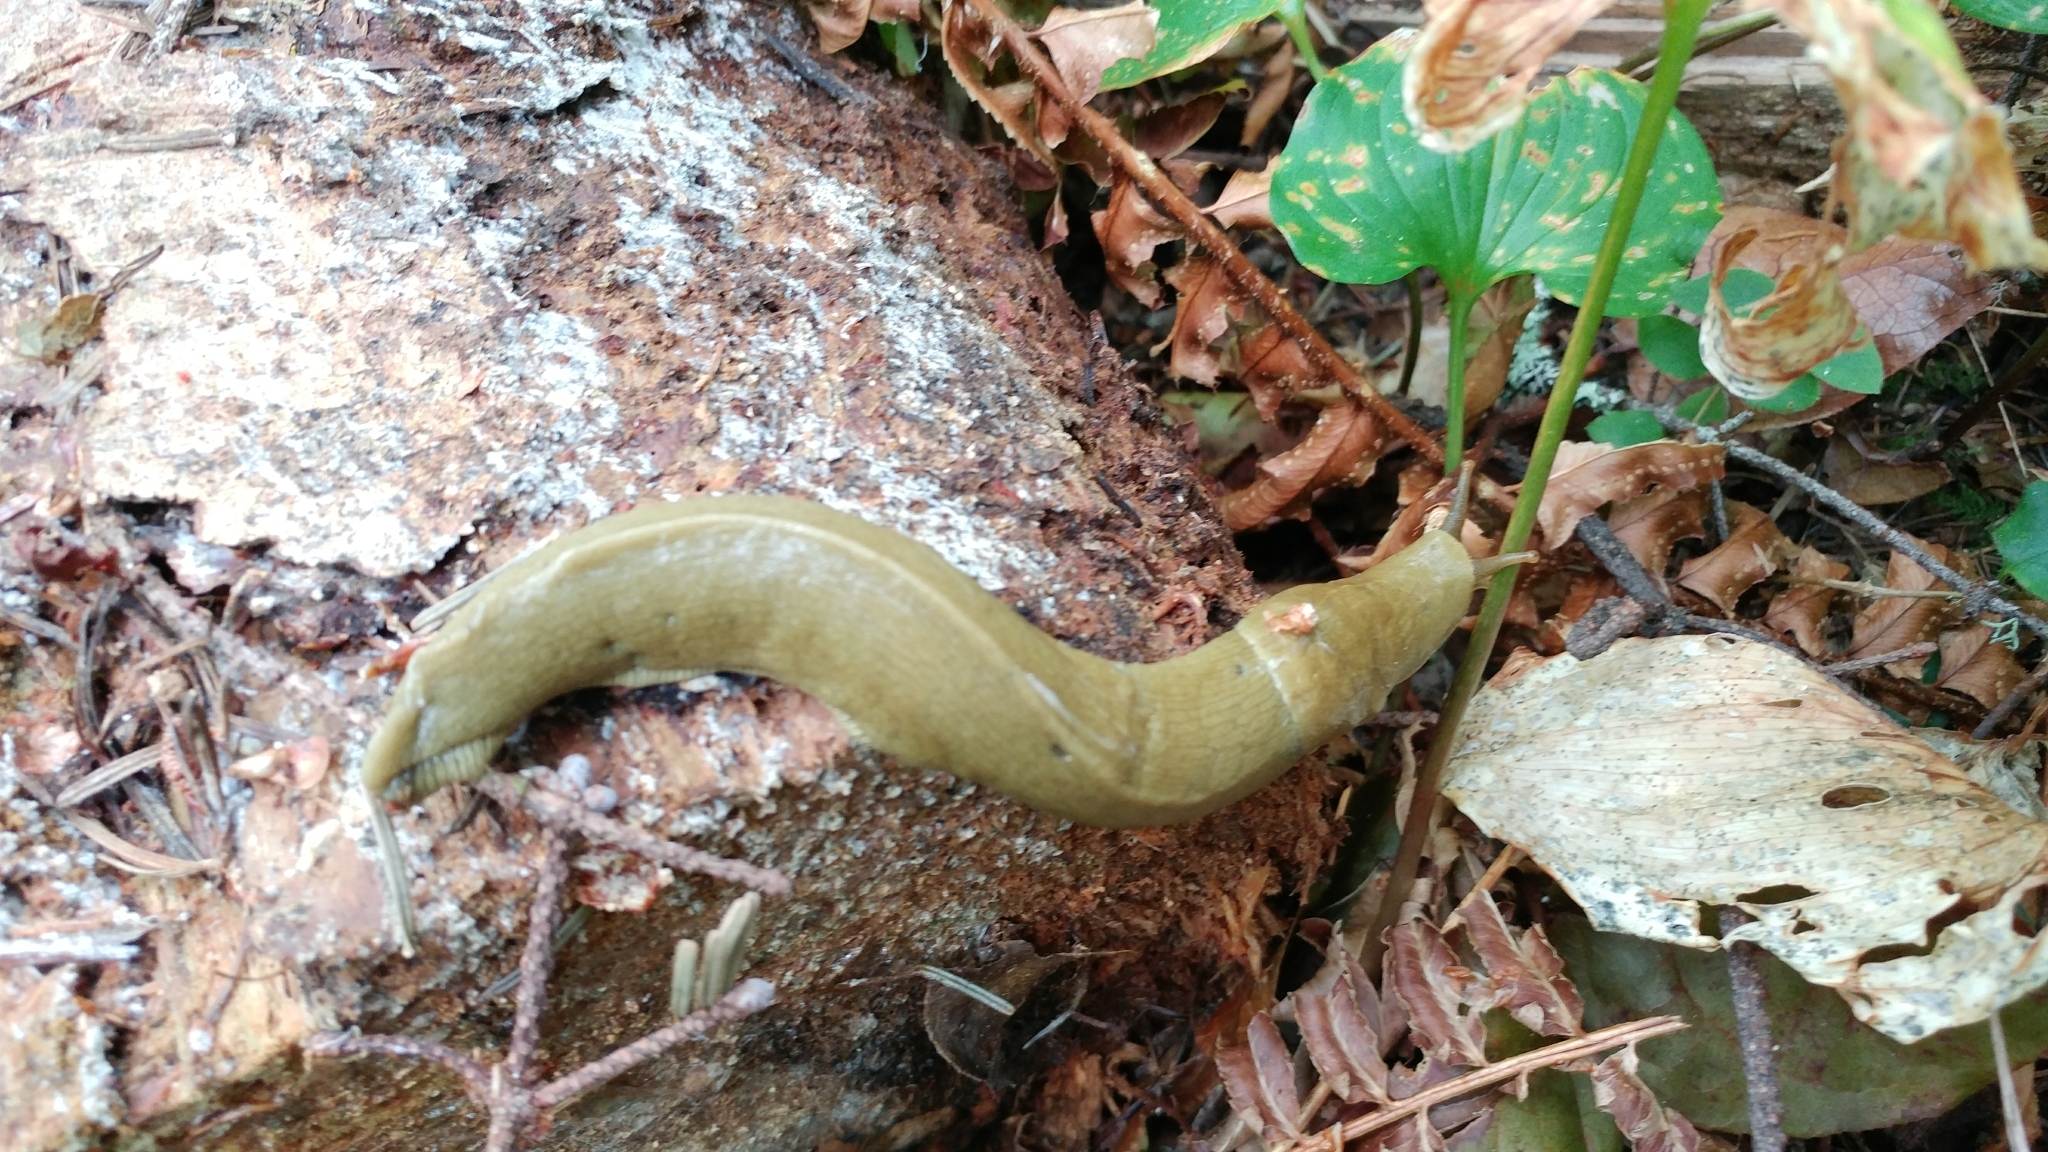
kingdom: Animalia
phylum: Mollusca
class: Gastropoda
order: Stylommatophora
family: Ariolimacidae
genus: Ariolimax
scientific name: Ariolimax columbianus
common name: Pacific banana slug
